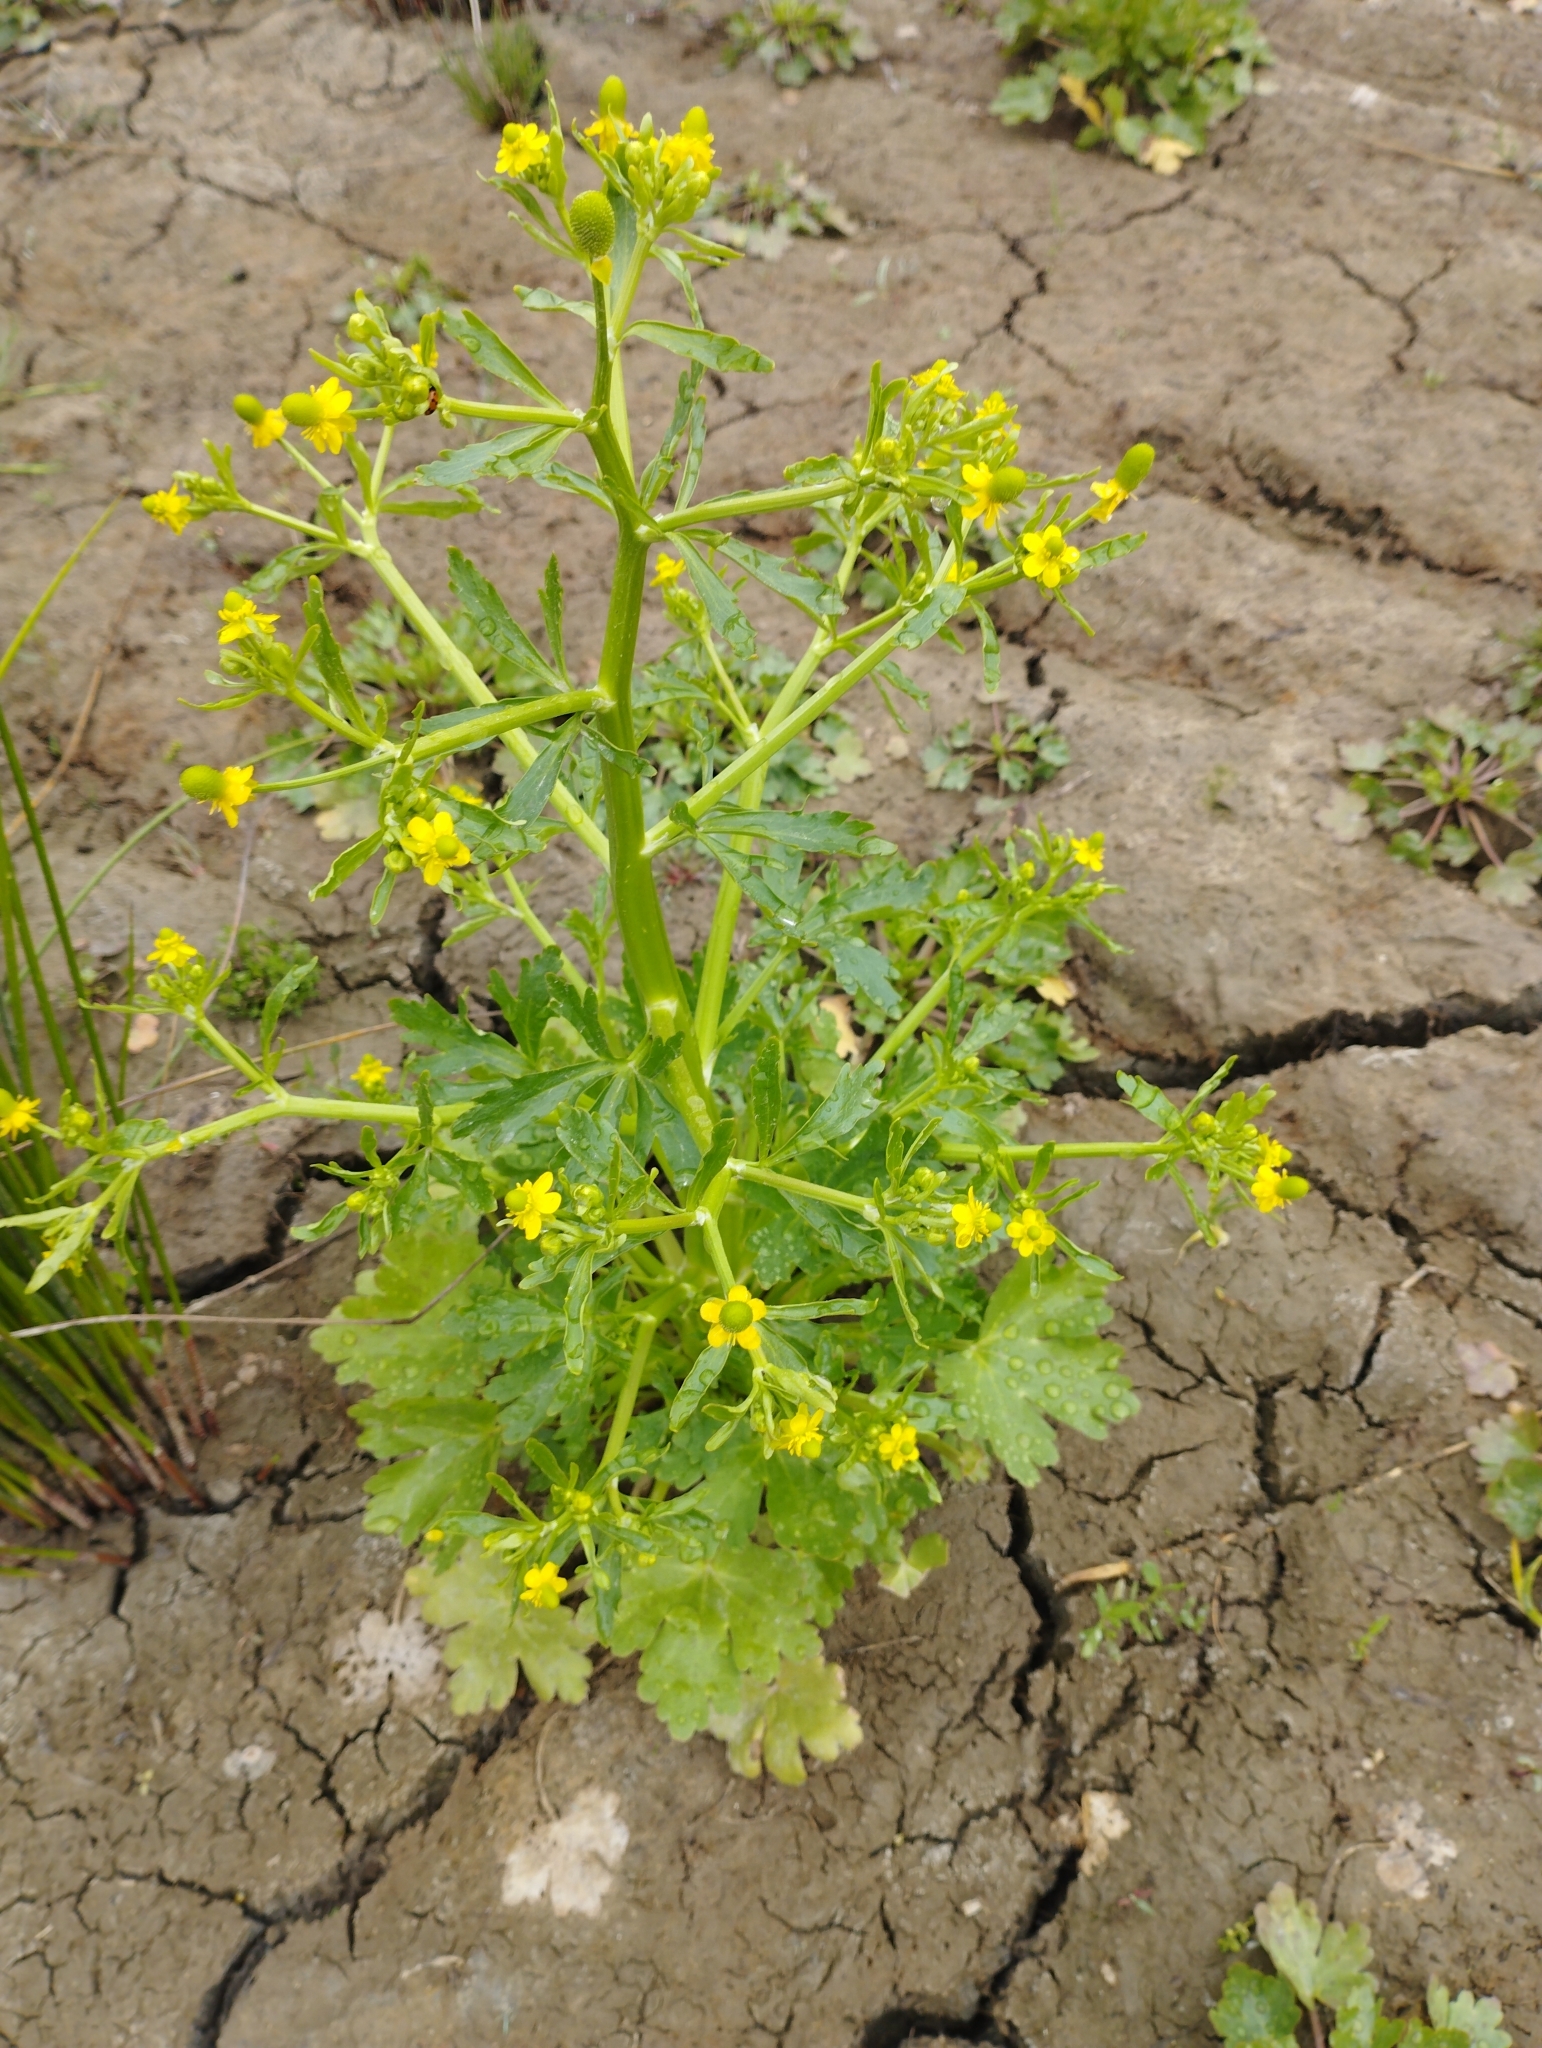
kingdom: Plantae
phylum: Tracheophyta
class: Magnoliopsida
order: Ranunculales
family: Ranunculaceae
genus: Ranunculus
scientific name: Ranunculus sceleratus
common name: Celery-leaved buttercup
